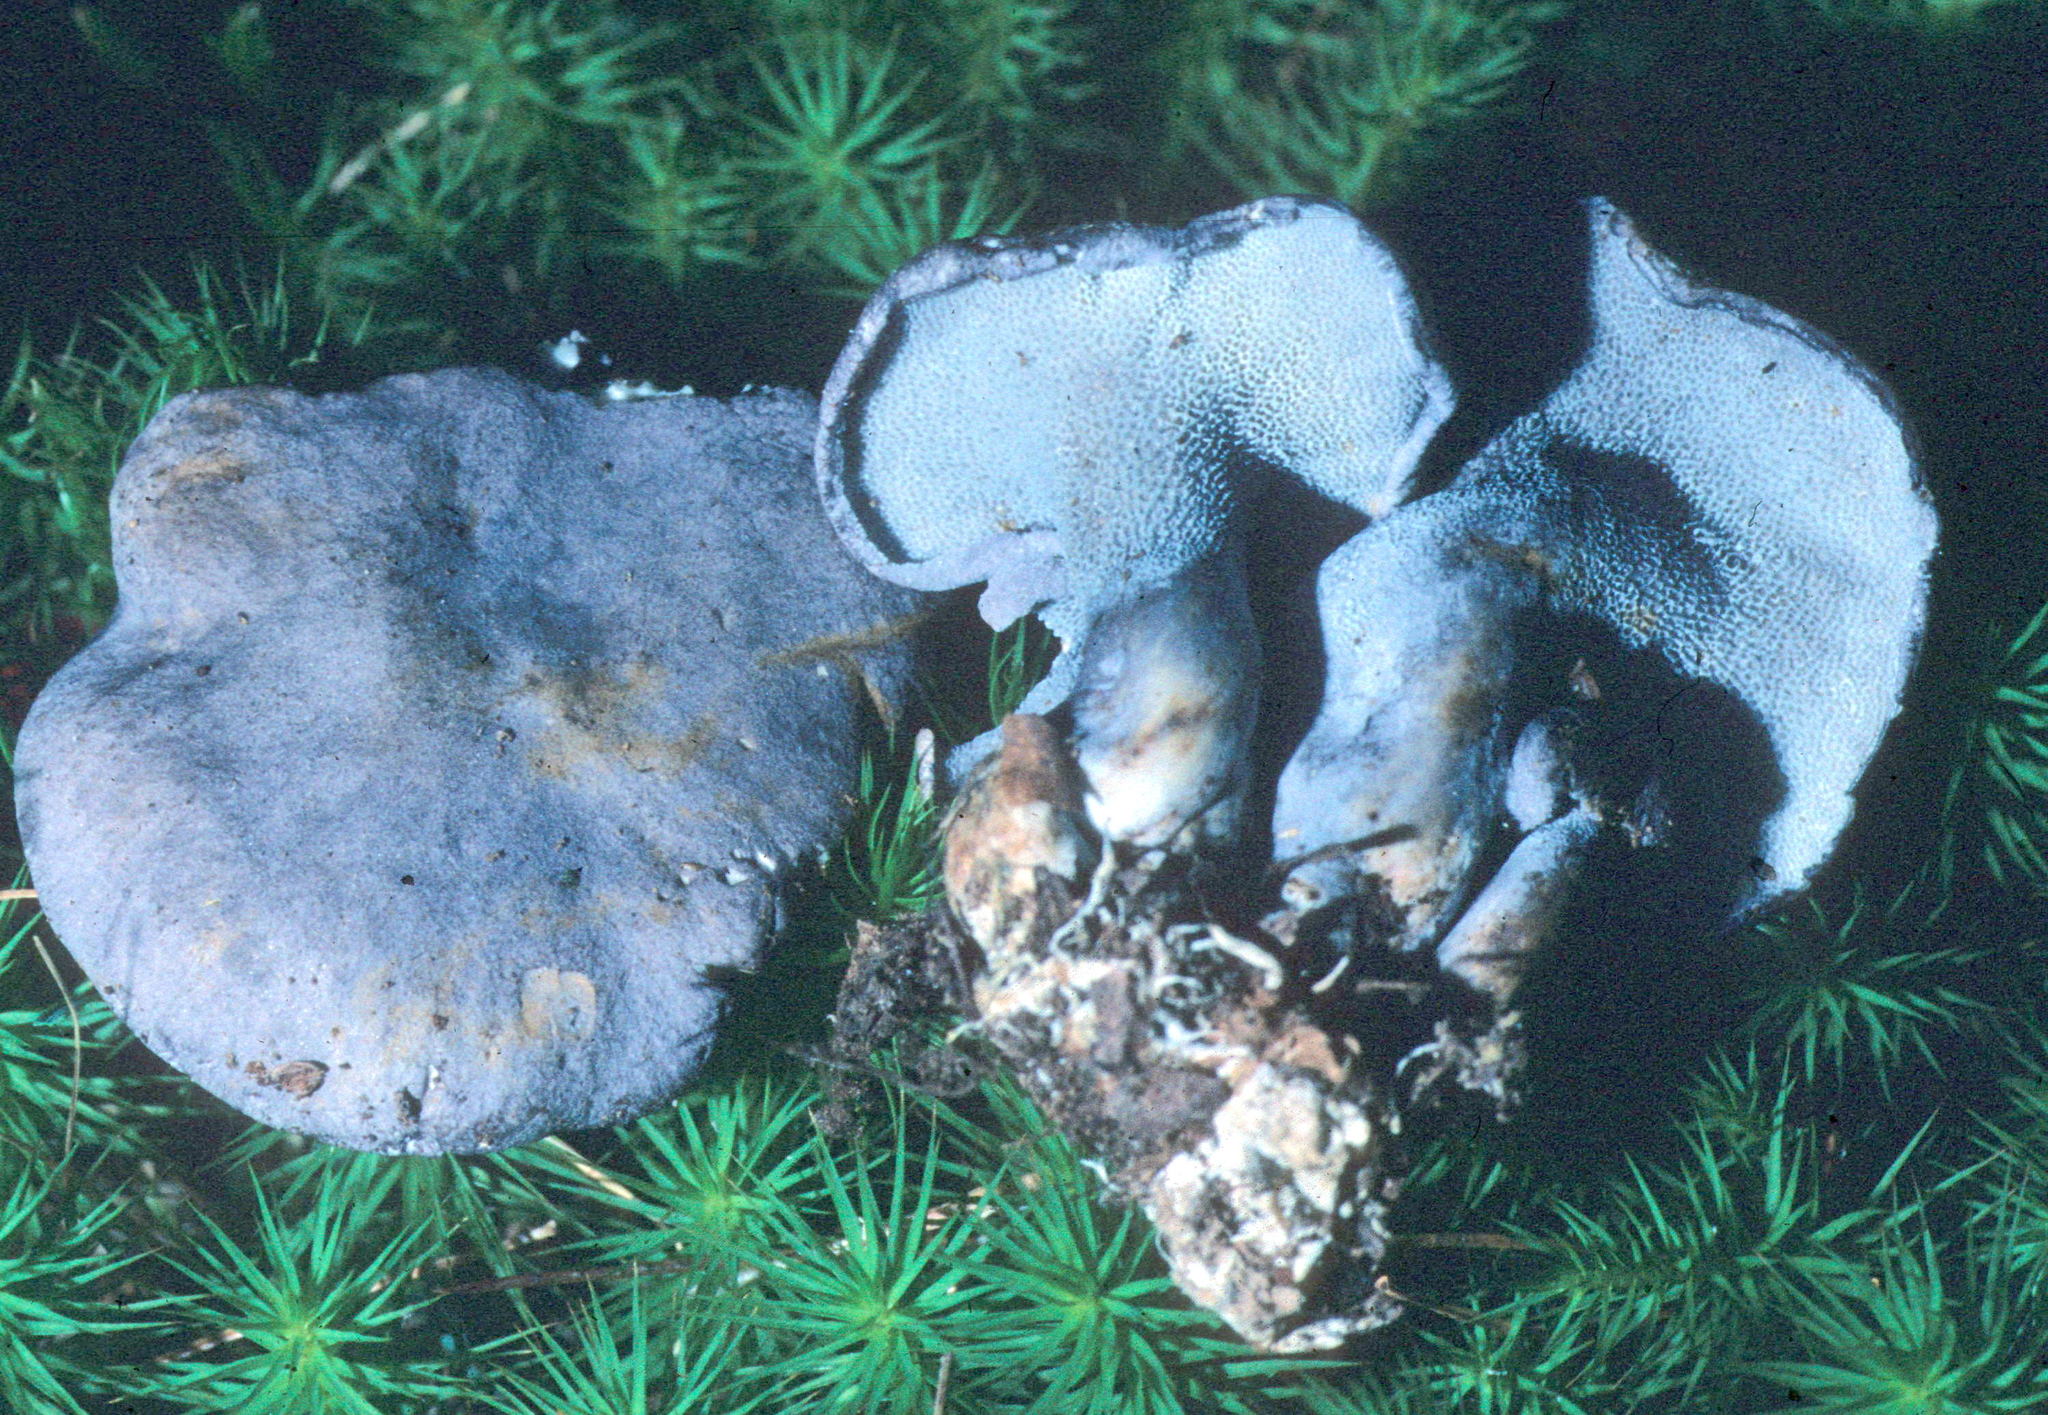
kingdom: Fungi
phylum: Basidiomycota
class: Agaricomycetes
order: Russulales
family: Albatrellaceae
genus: Neoalbatrellus
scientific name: Neoalbatrellus caeruleoporus
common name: Blue polypore
